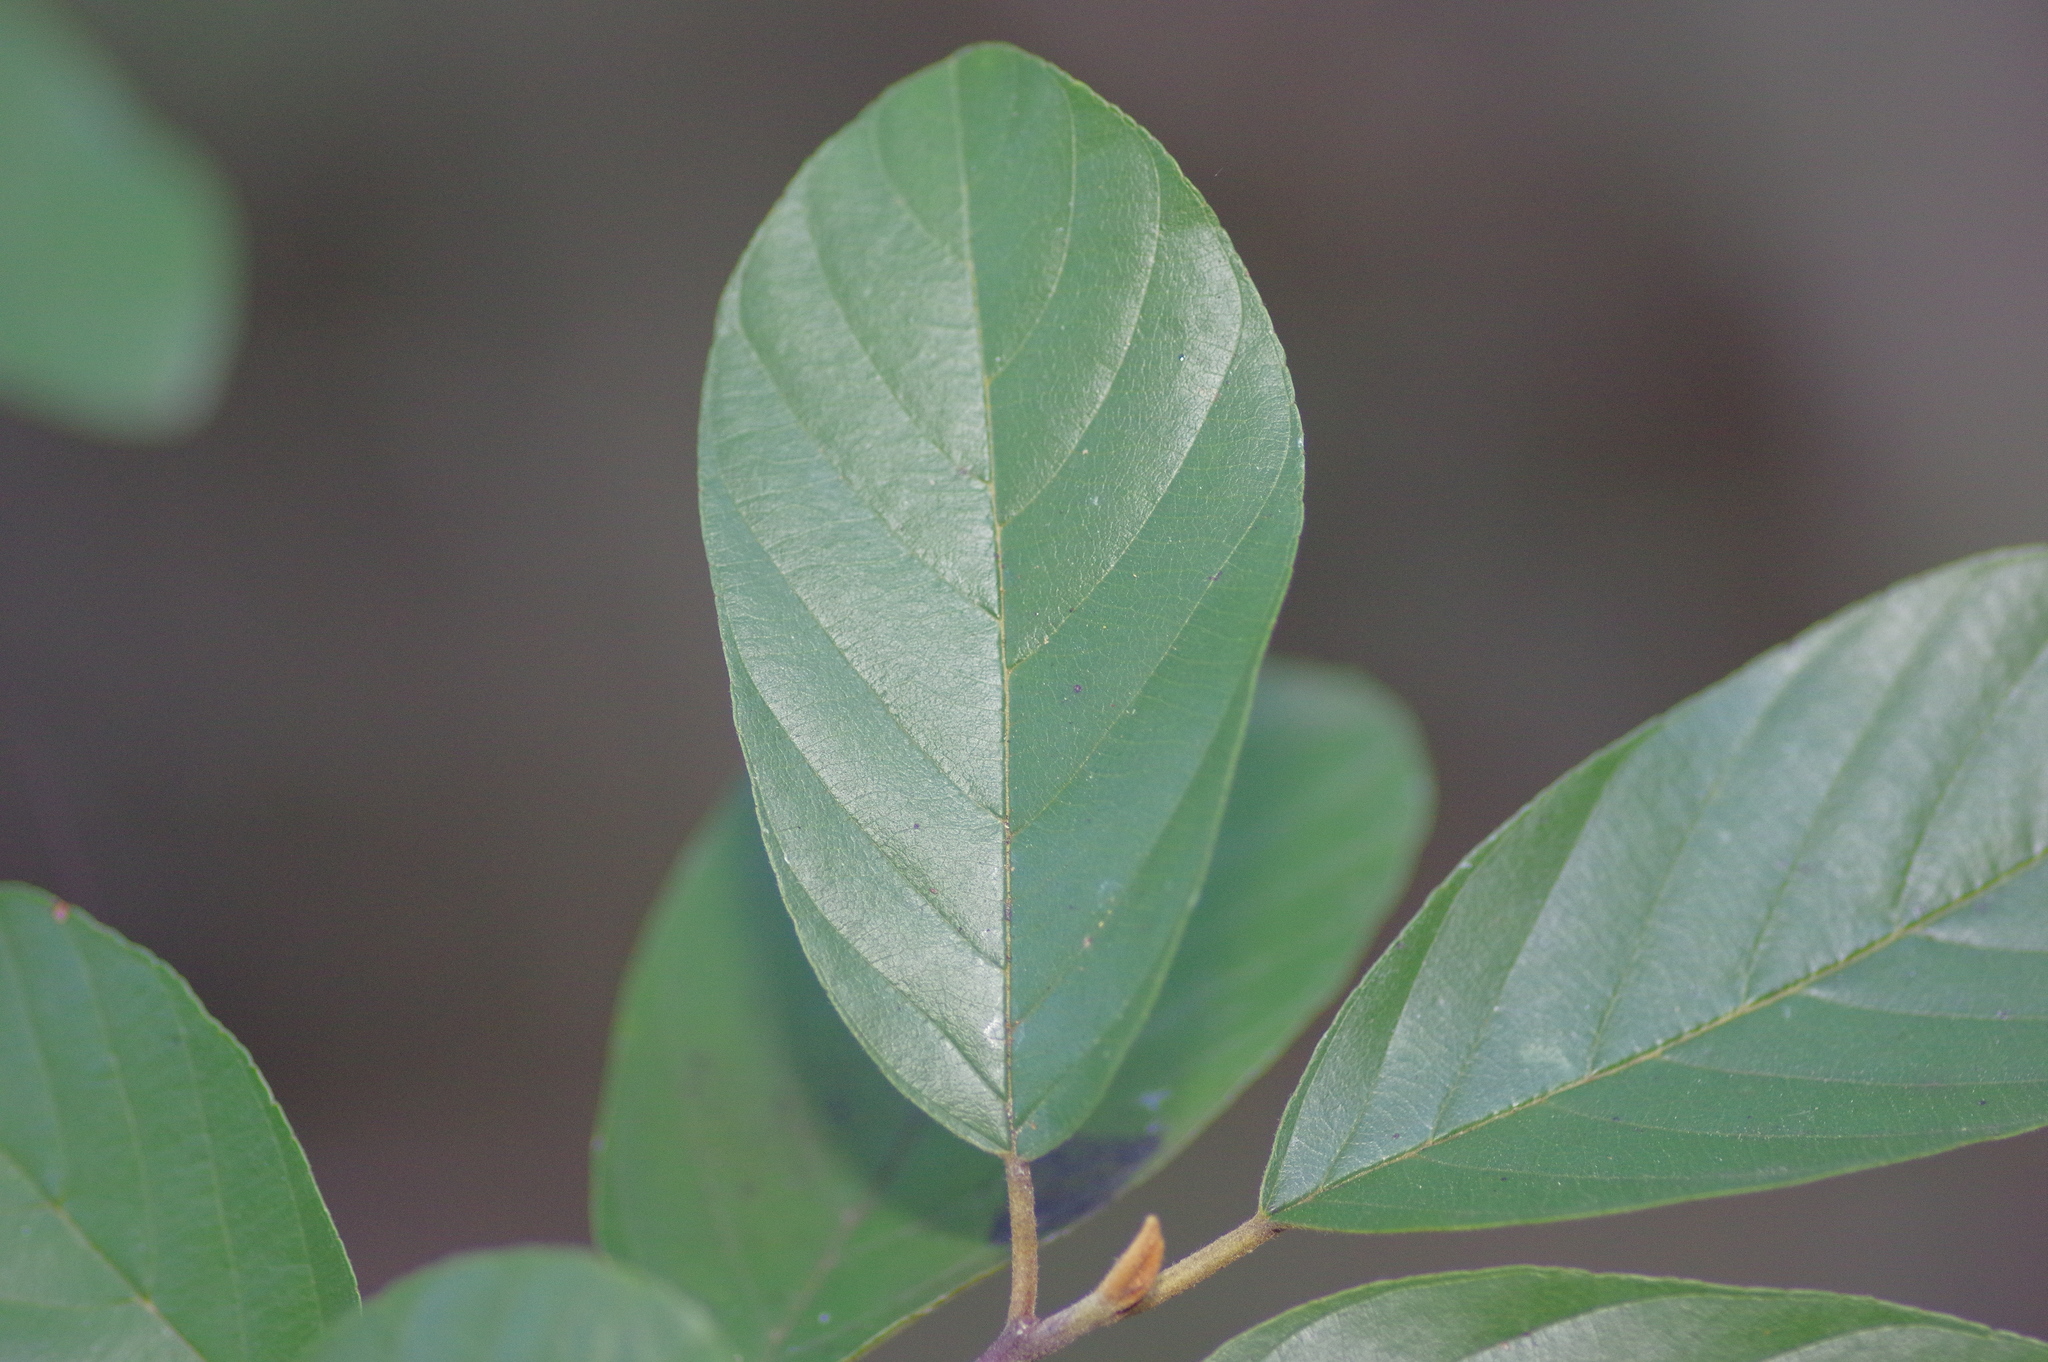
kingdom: Plantae
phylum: Tracheophyta
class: Magnoliopsida
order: Rosales
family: Rhamnaceae
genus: Frangula
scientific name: Frangula caroliniana
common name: Carolina buckthorn
